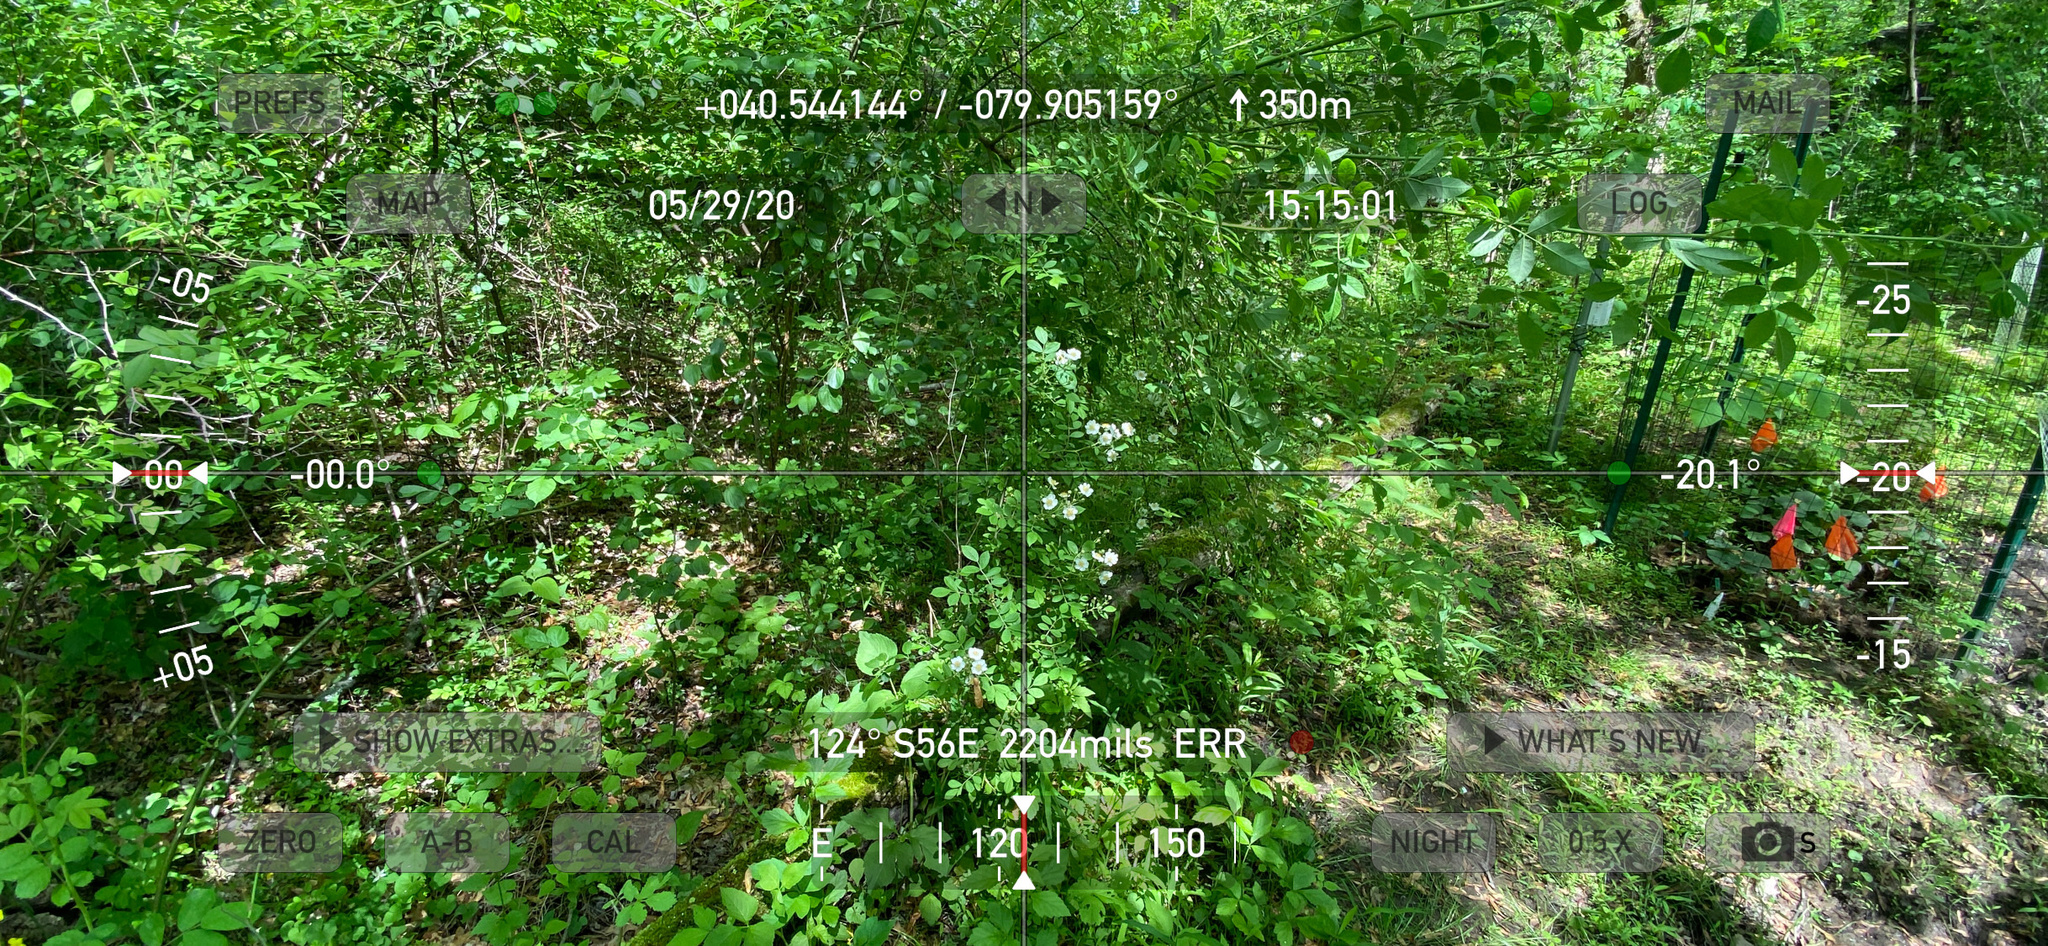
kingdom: Plantae
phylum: Tracheophyta
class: Magnoliopsida
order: Rosales
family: Rosaceae
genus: Rosa
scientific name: Rosa multiflora
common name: Multiflora rose
